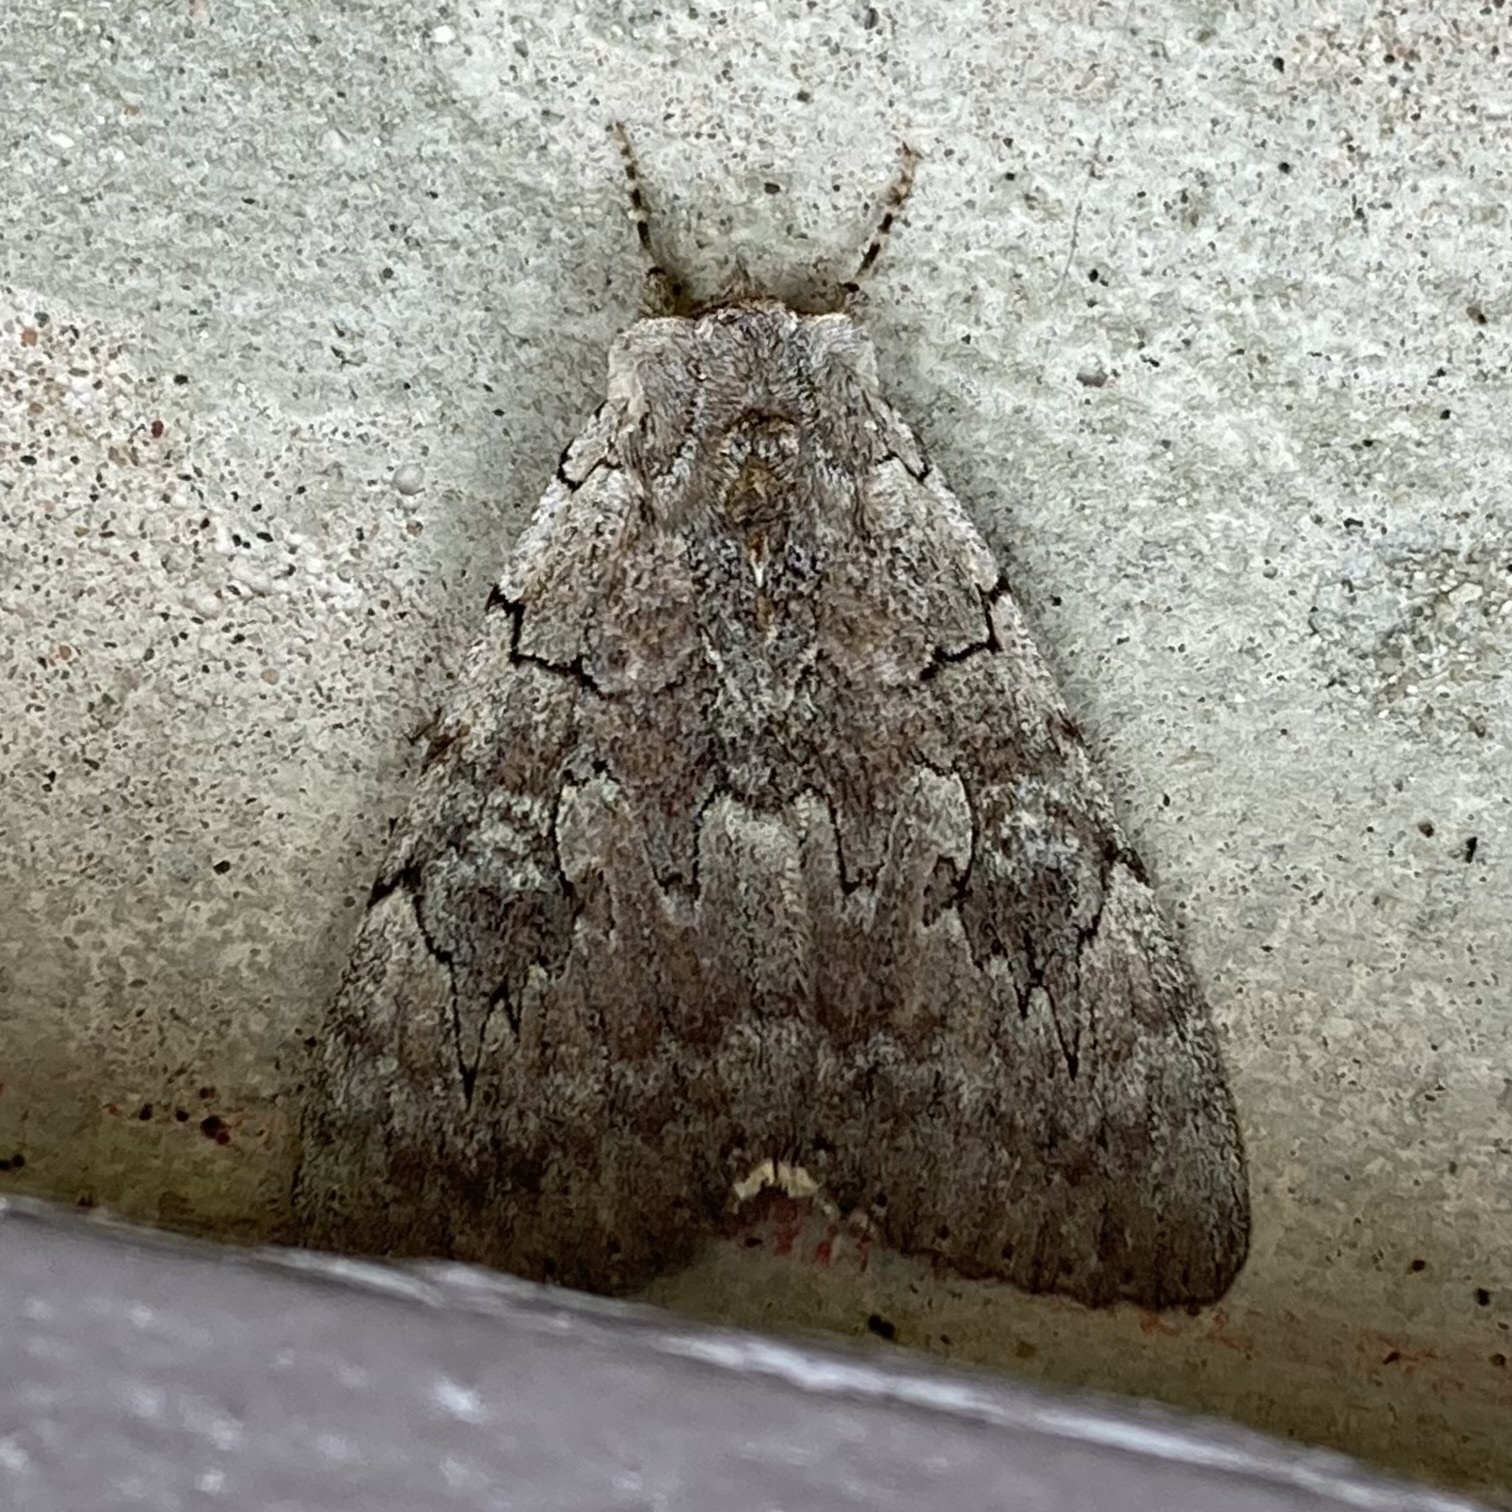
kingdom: Animalia
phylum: Arthropoda
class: Insecta
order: Lepidoptera
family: Erebidae
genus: Catocala
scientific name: Catocala concumbens
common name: Pink underwing
